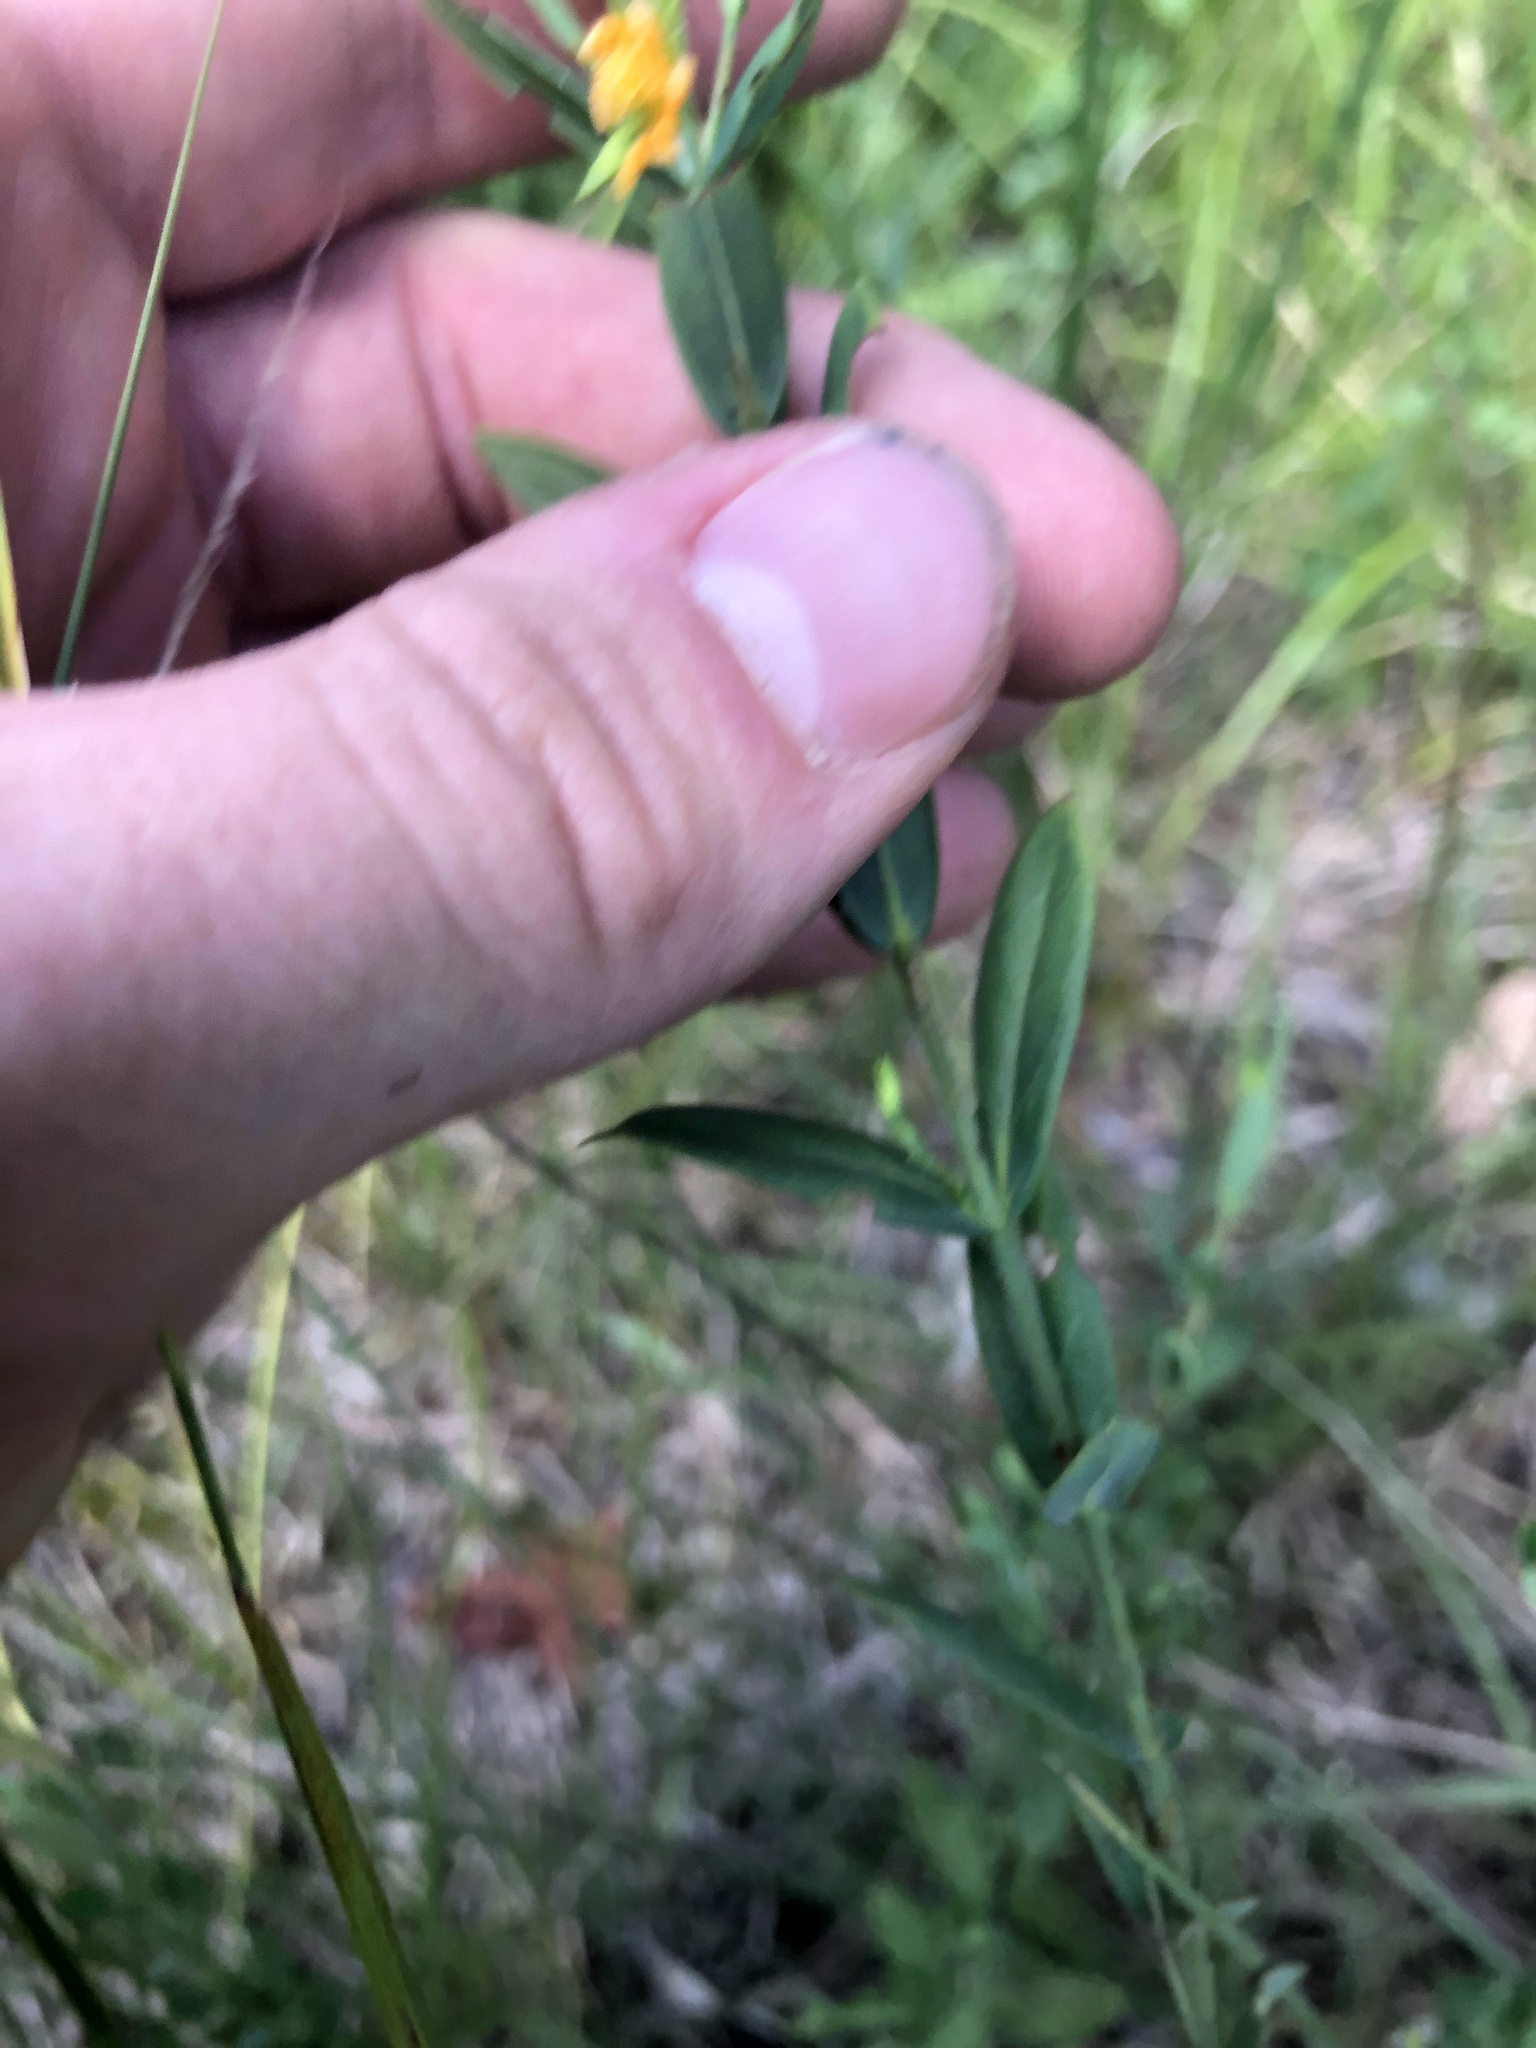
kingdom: Plantae
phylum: Tracheophyta
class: Magnoliopsida
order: Malpighiales
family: Hypericaceae
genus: Hypericum
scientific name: Hypericum virgatum
